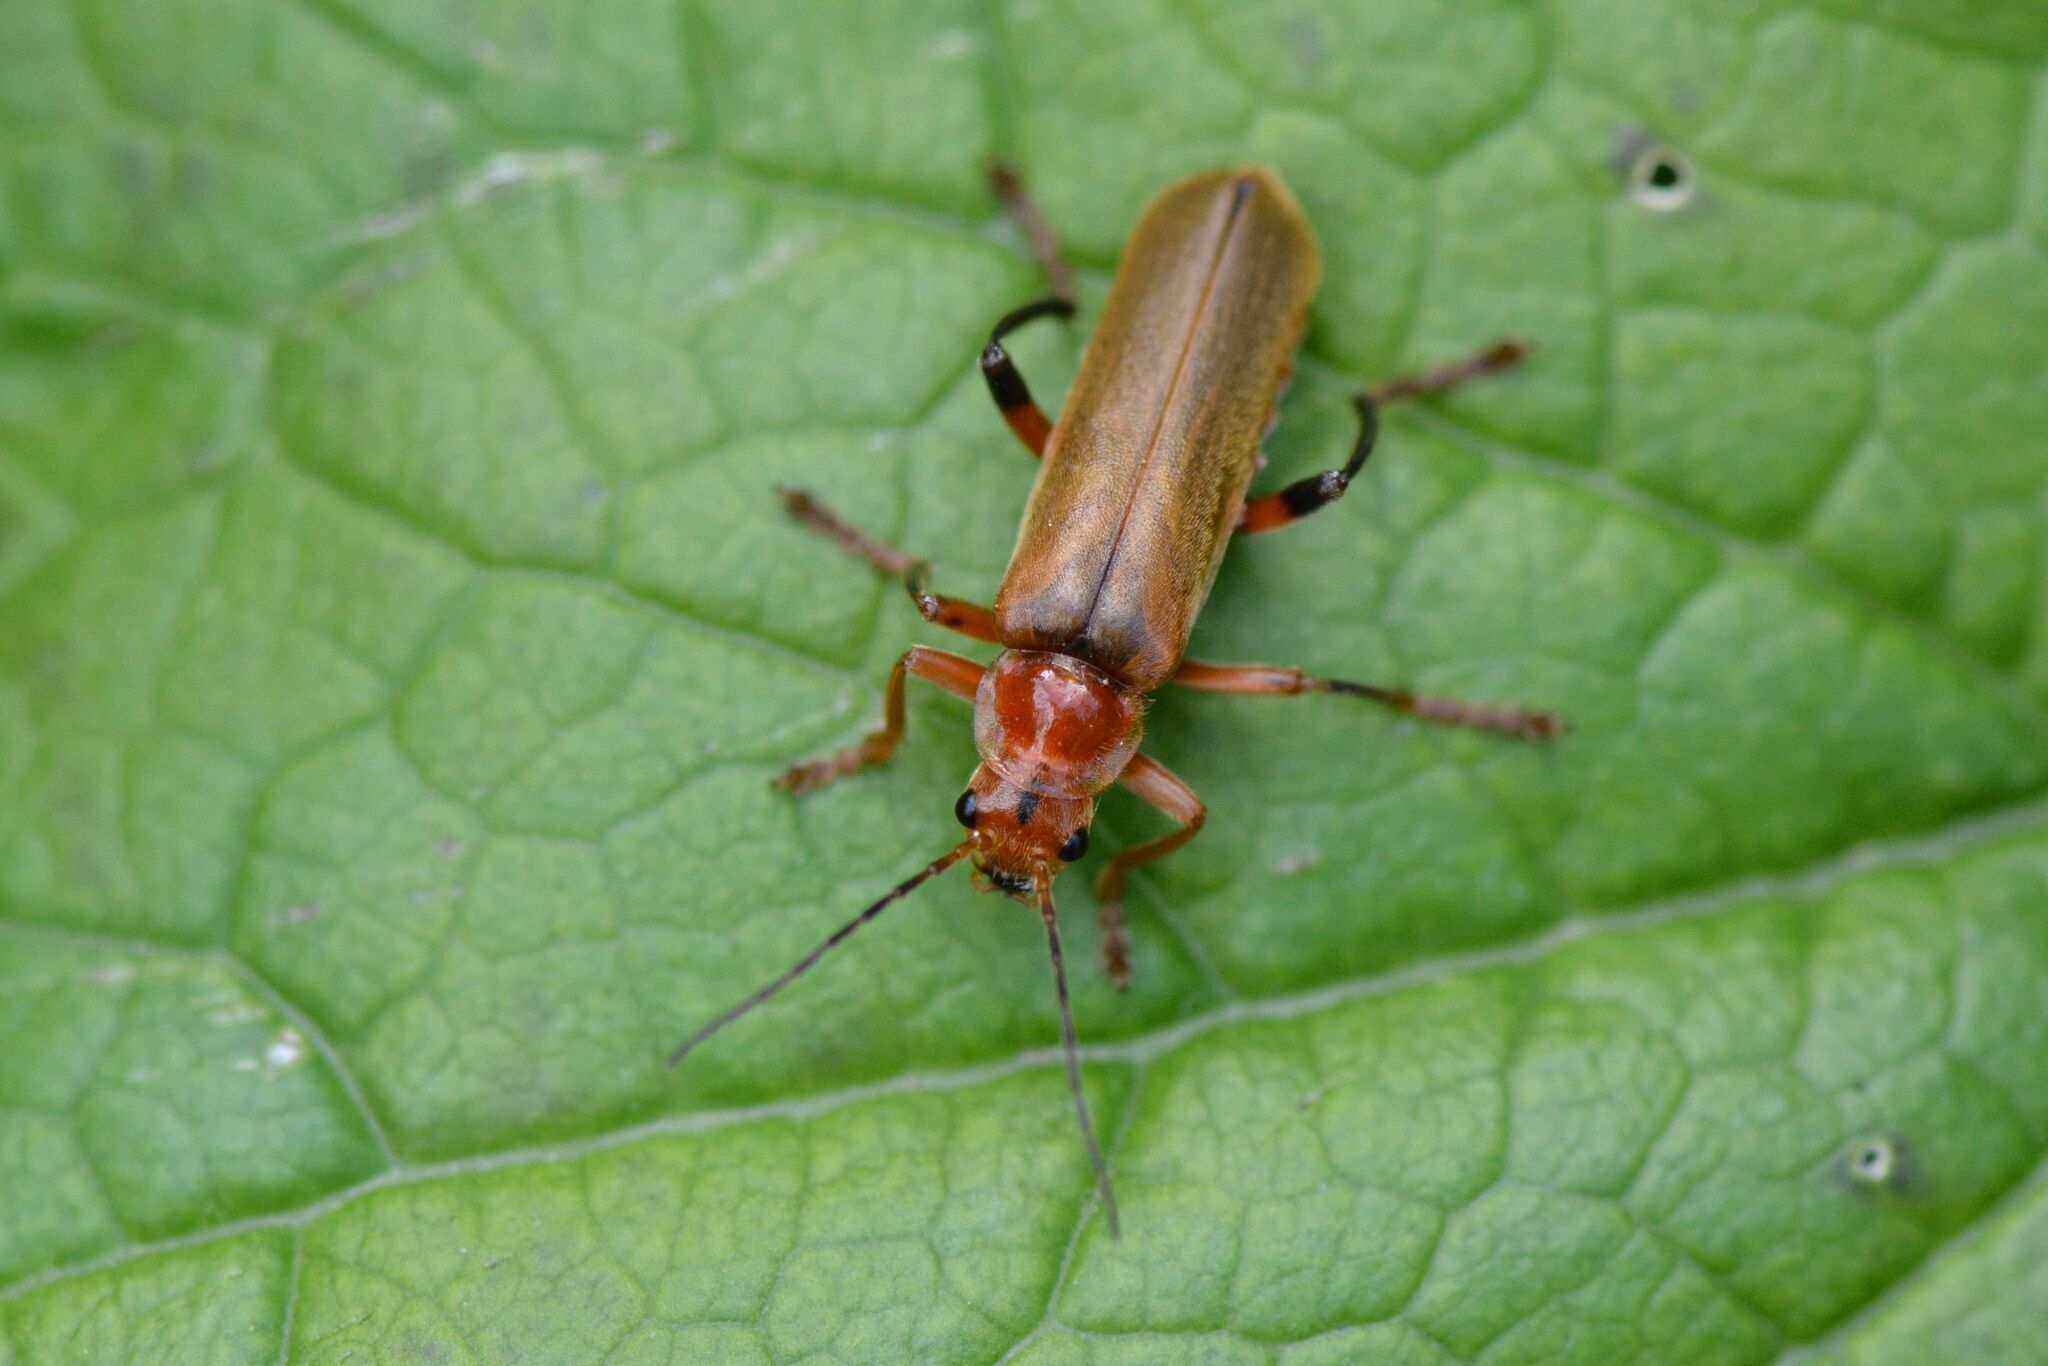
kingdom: Animalia
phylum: Arthropoda
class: Insecta
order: Coleoptera
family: Cantharidae
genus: Cantharis
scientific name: Cantharis livida
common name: Livid soldier beetle
